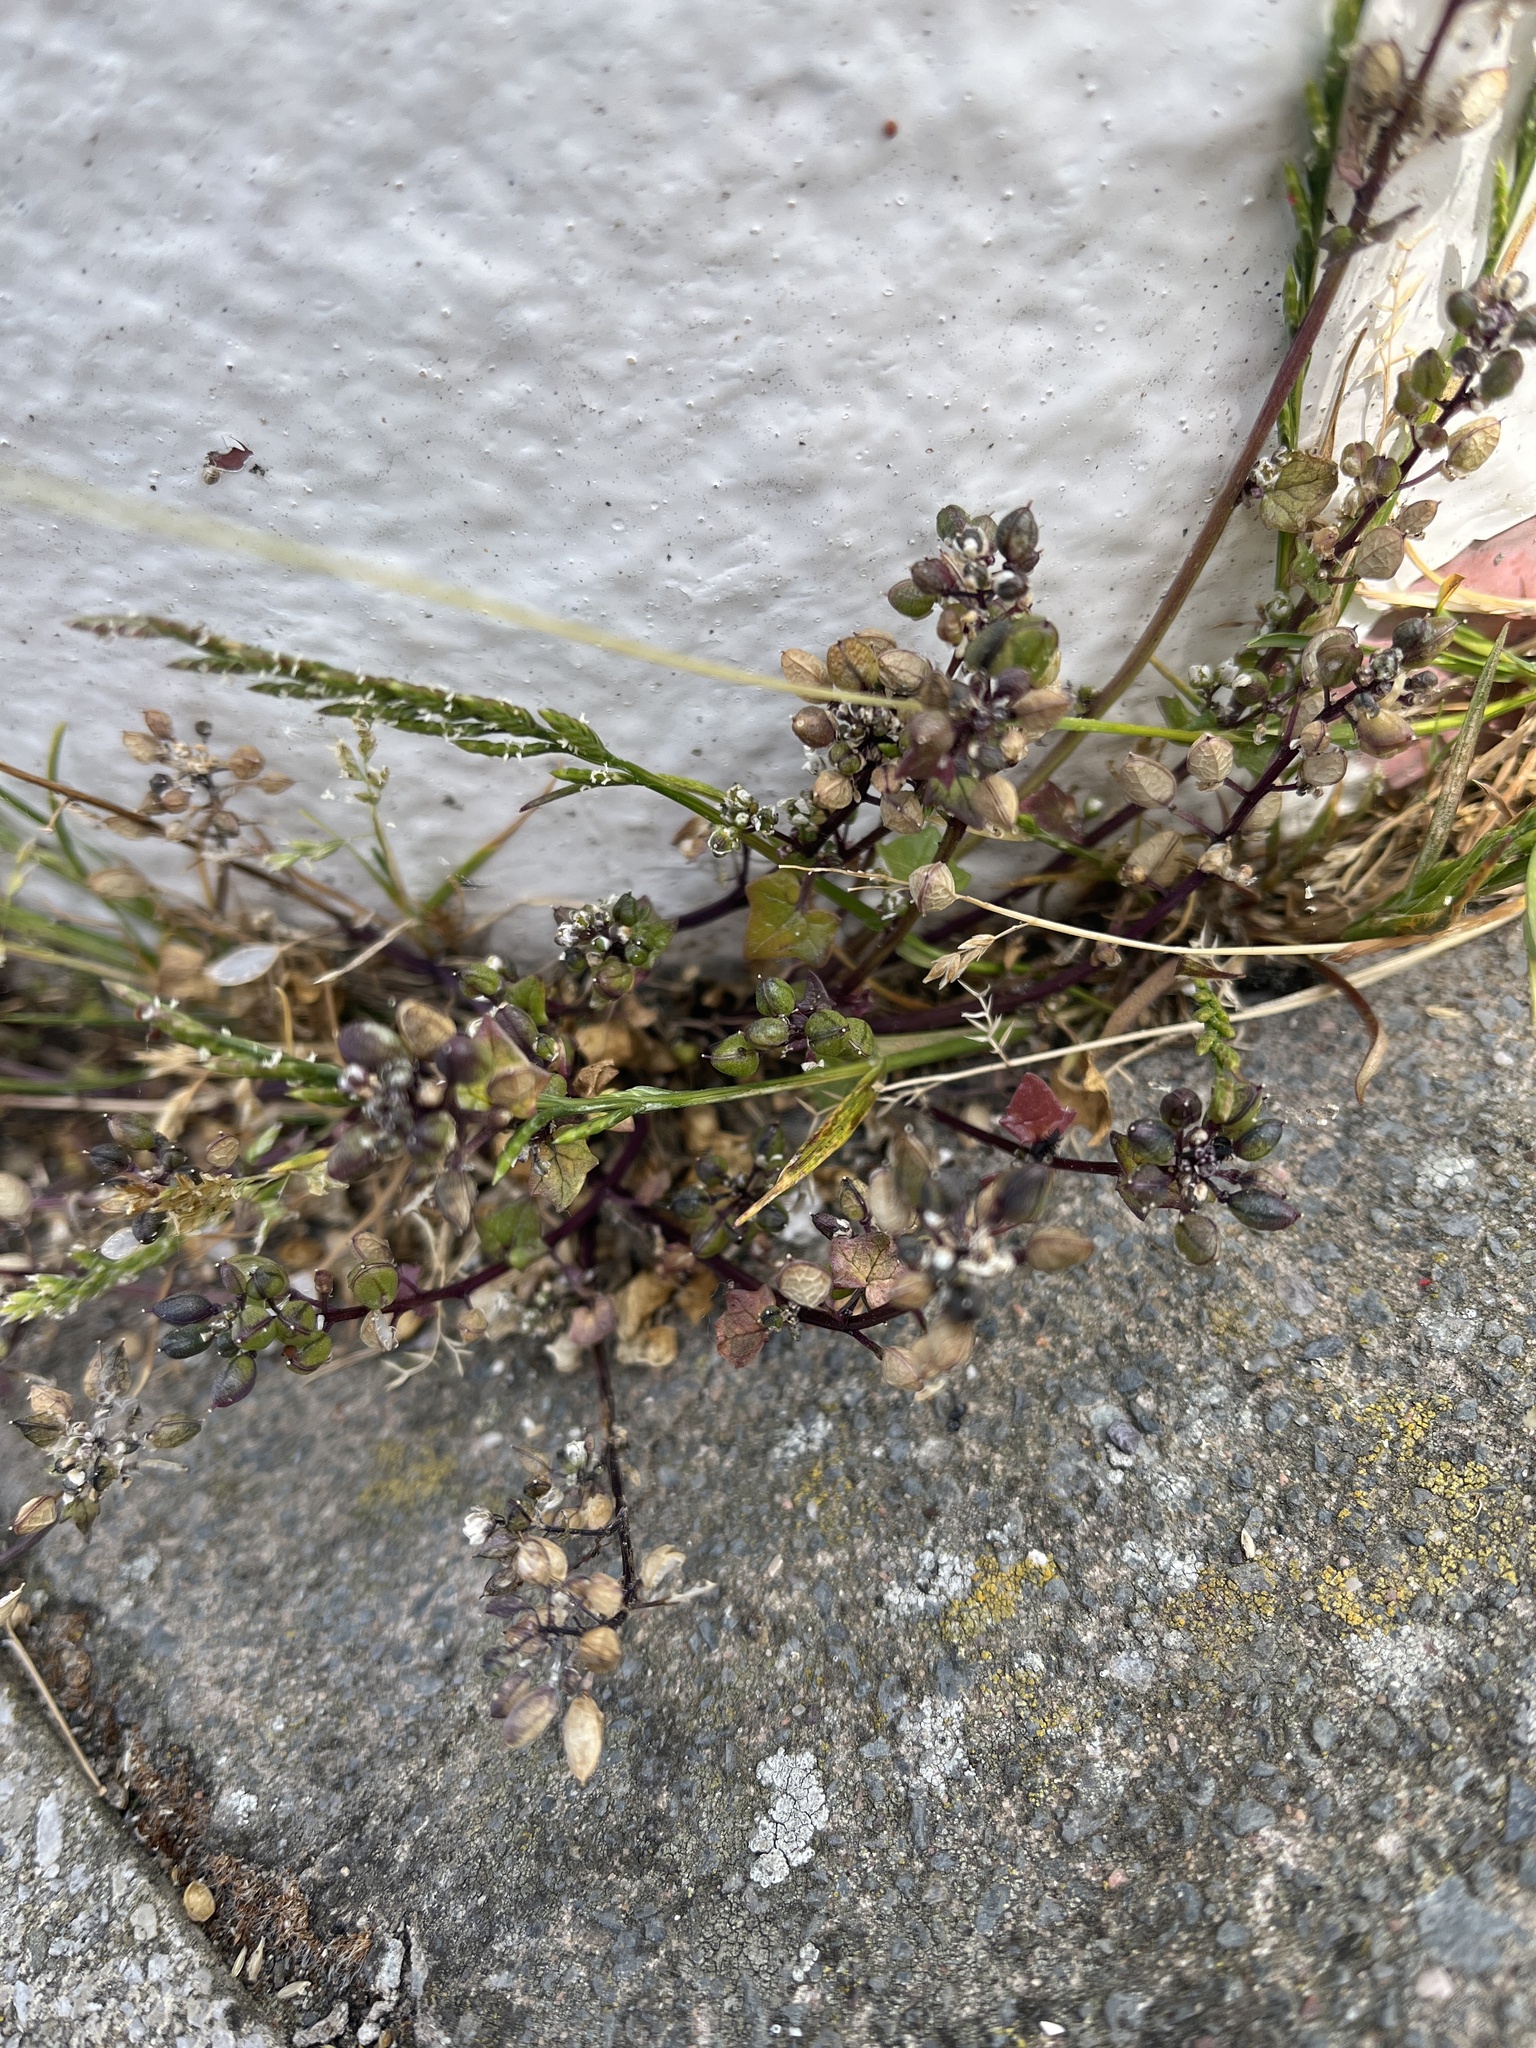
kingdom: Plantae
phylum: Tracheophyta
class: Magnoliopsida
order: Brassicales
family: Brassicaceae
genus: Cochlearia
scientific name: Cochlearia danica
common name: Early scurvygrass
